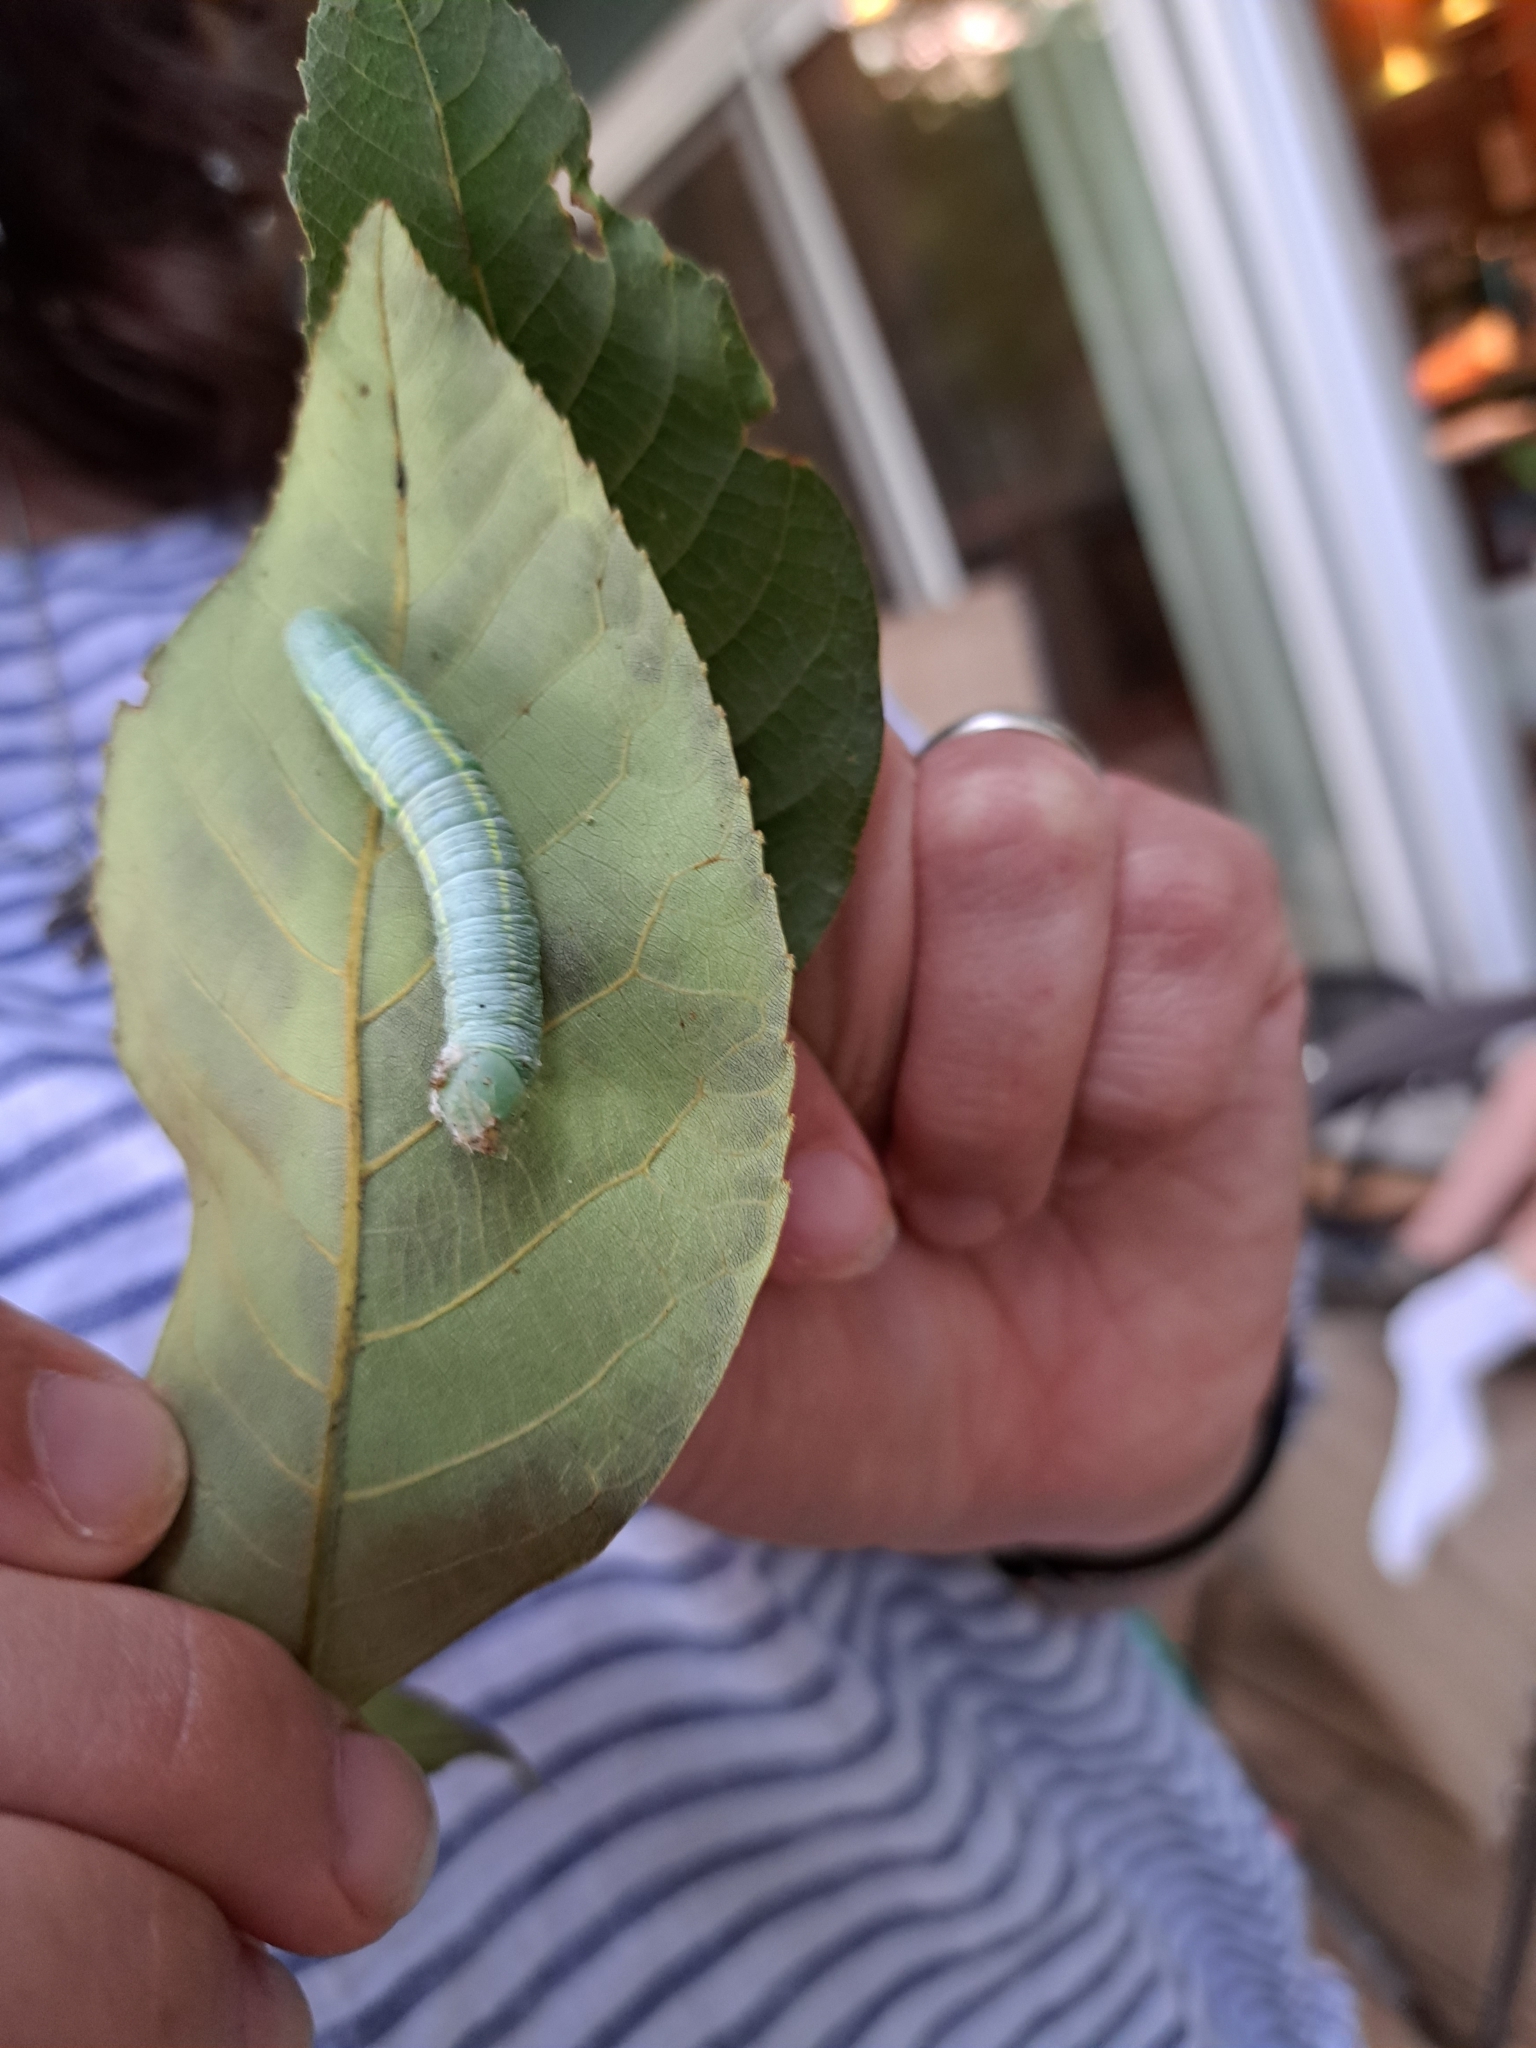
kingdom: Animalia
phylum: Arthropoda
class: Insecta
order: Lepidoptera
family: Notodontidae
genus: Nadata
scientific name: Nadata gibbosa
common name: White-dotted prominent
